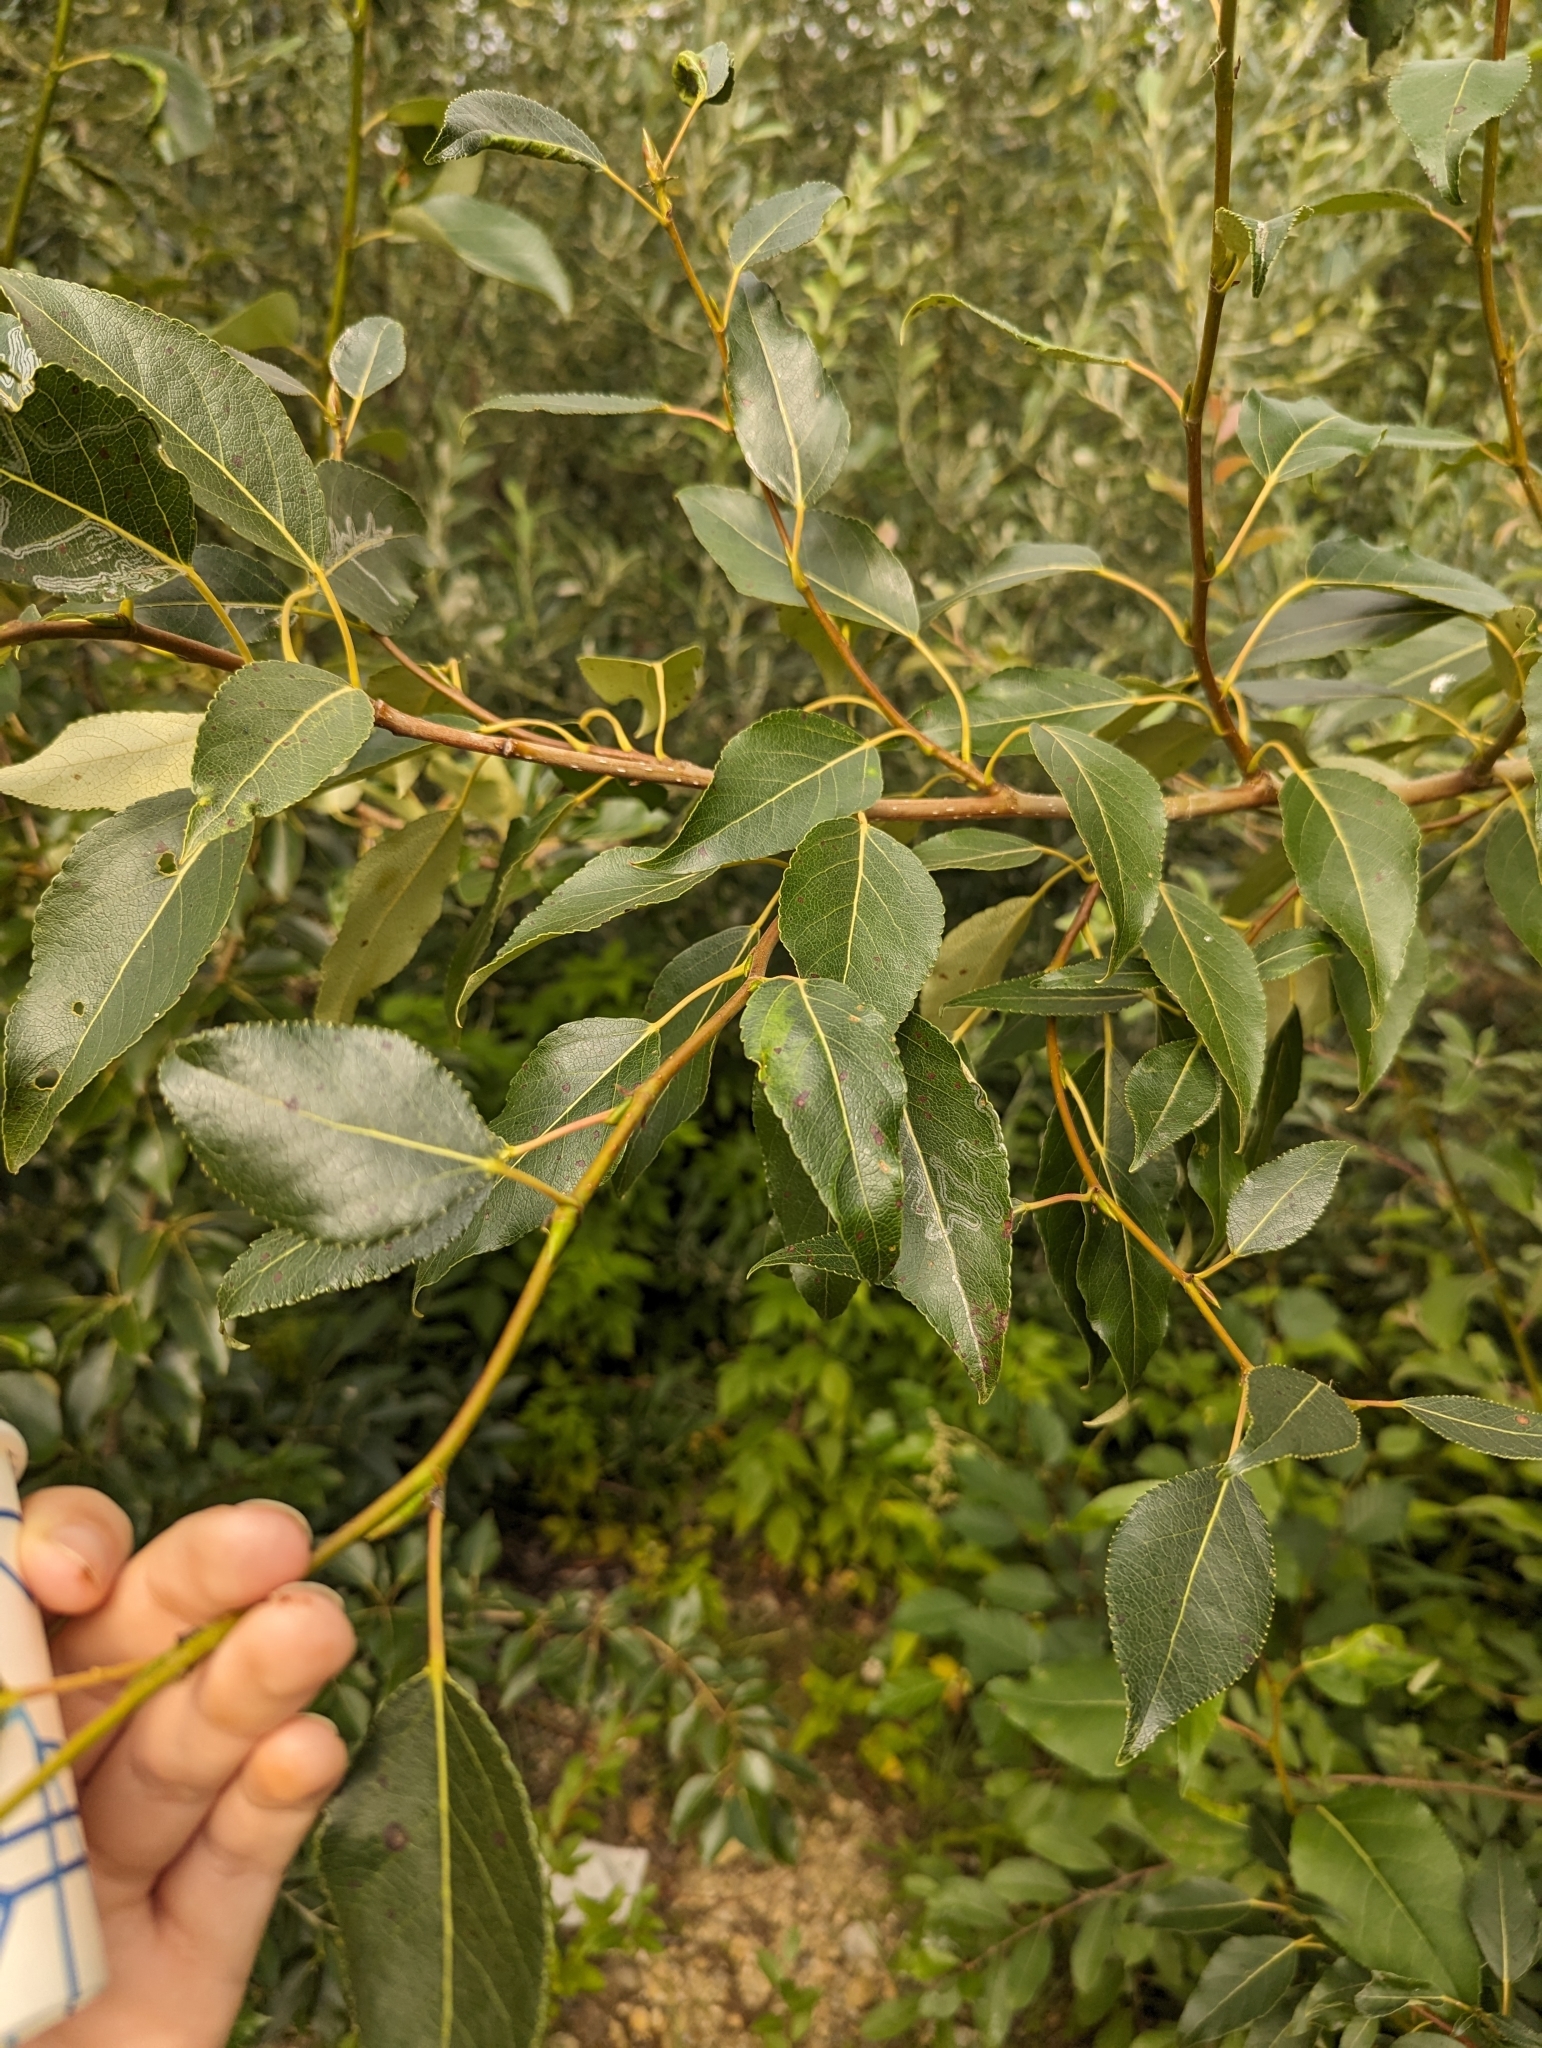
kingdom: Plantae
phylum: Tracheophyta
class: Magnoliopsida
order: Malpighiales
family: Salicaceae
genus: Populus
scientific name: Populus balsamifera
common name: Balsam poplar
